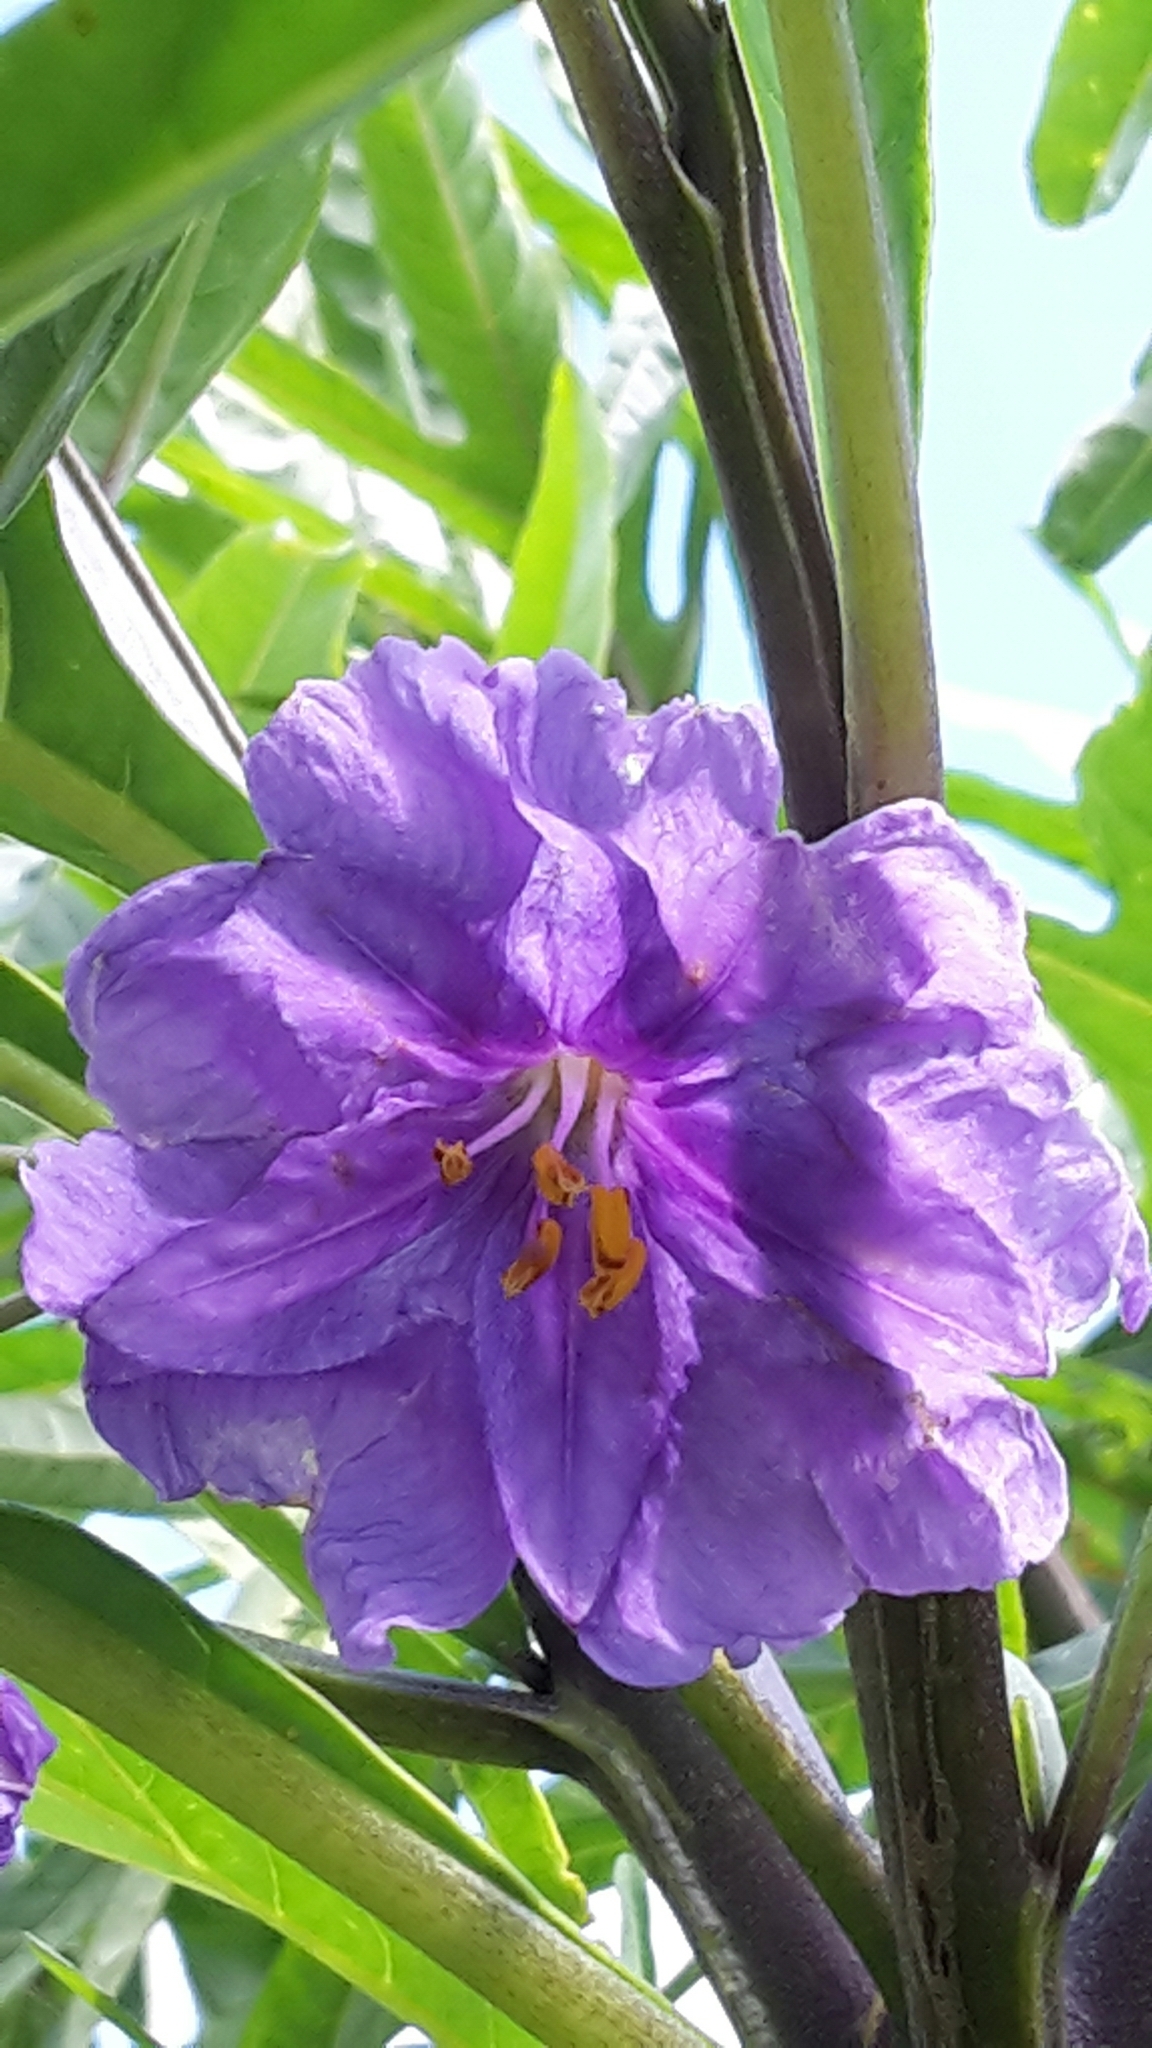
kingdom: Plantae
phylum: Tracheophyta
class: Magnoliopsida
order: Solanales
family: Solanaceae
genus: Solanum
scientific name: Solanum laciniatum
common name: Kangaroo-apple
